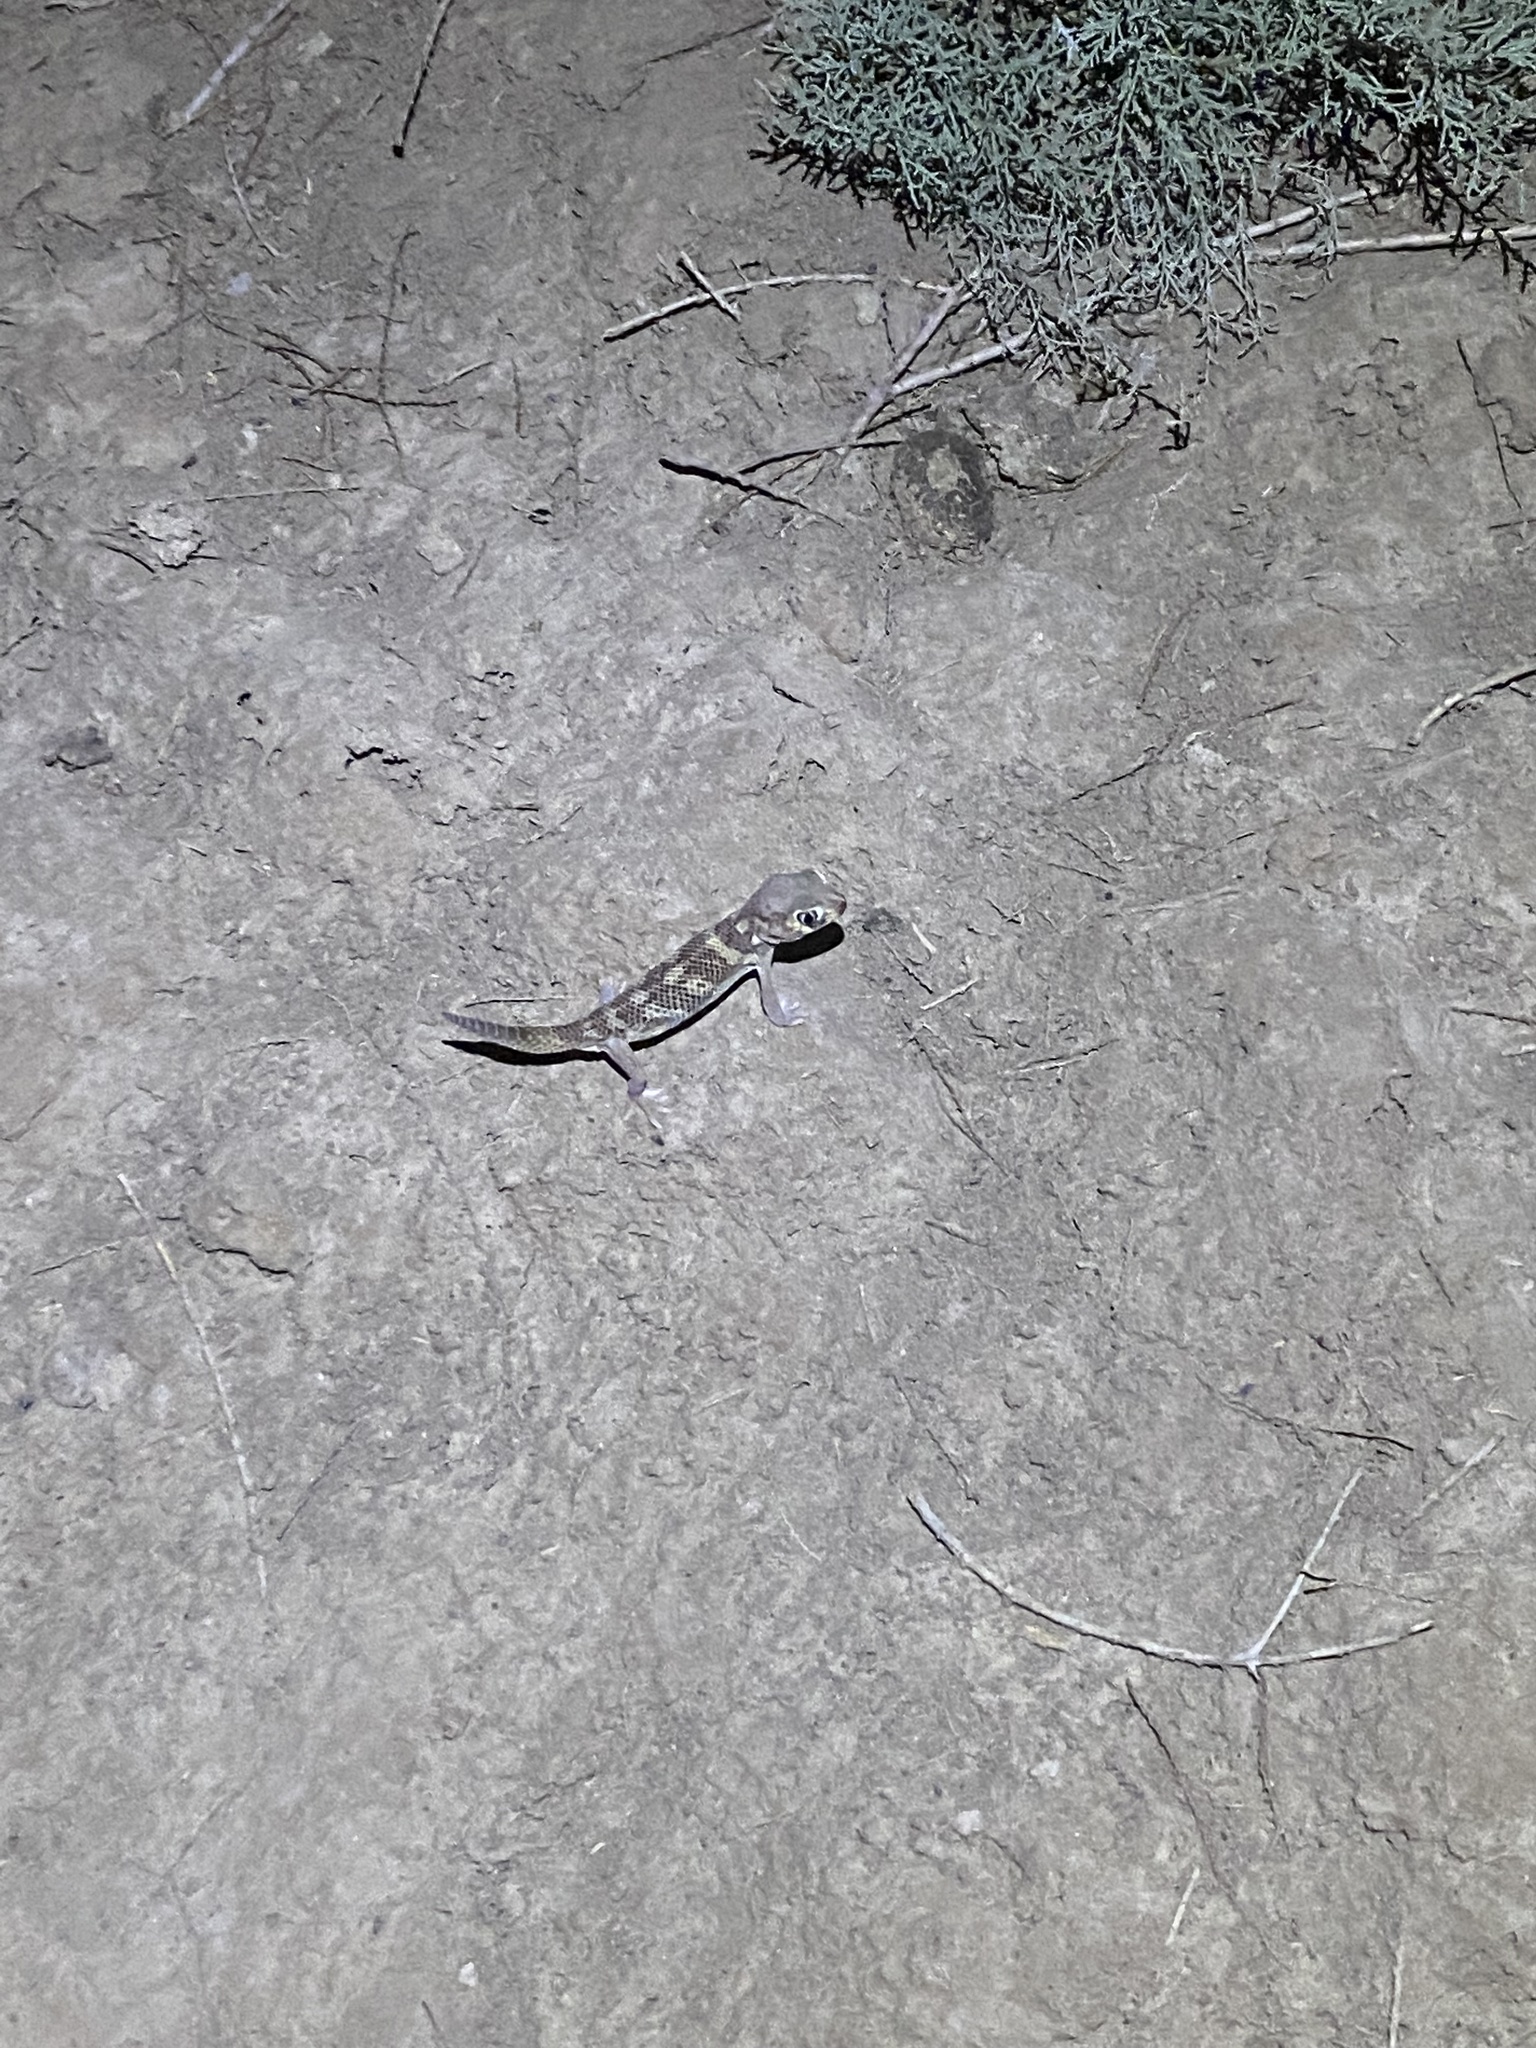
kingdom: Animalia
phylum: Chordata
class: Squamata
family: Sphaerodactylidae
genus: Teratoscincus
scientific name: Teratoscincus bedriagai
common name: Bedriaga's plate-tailed gecko
